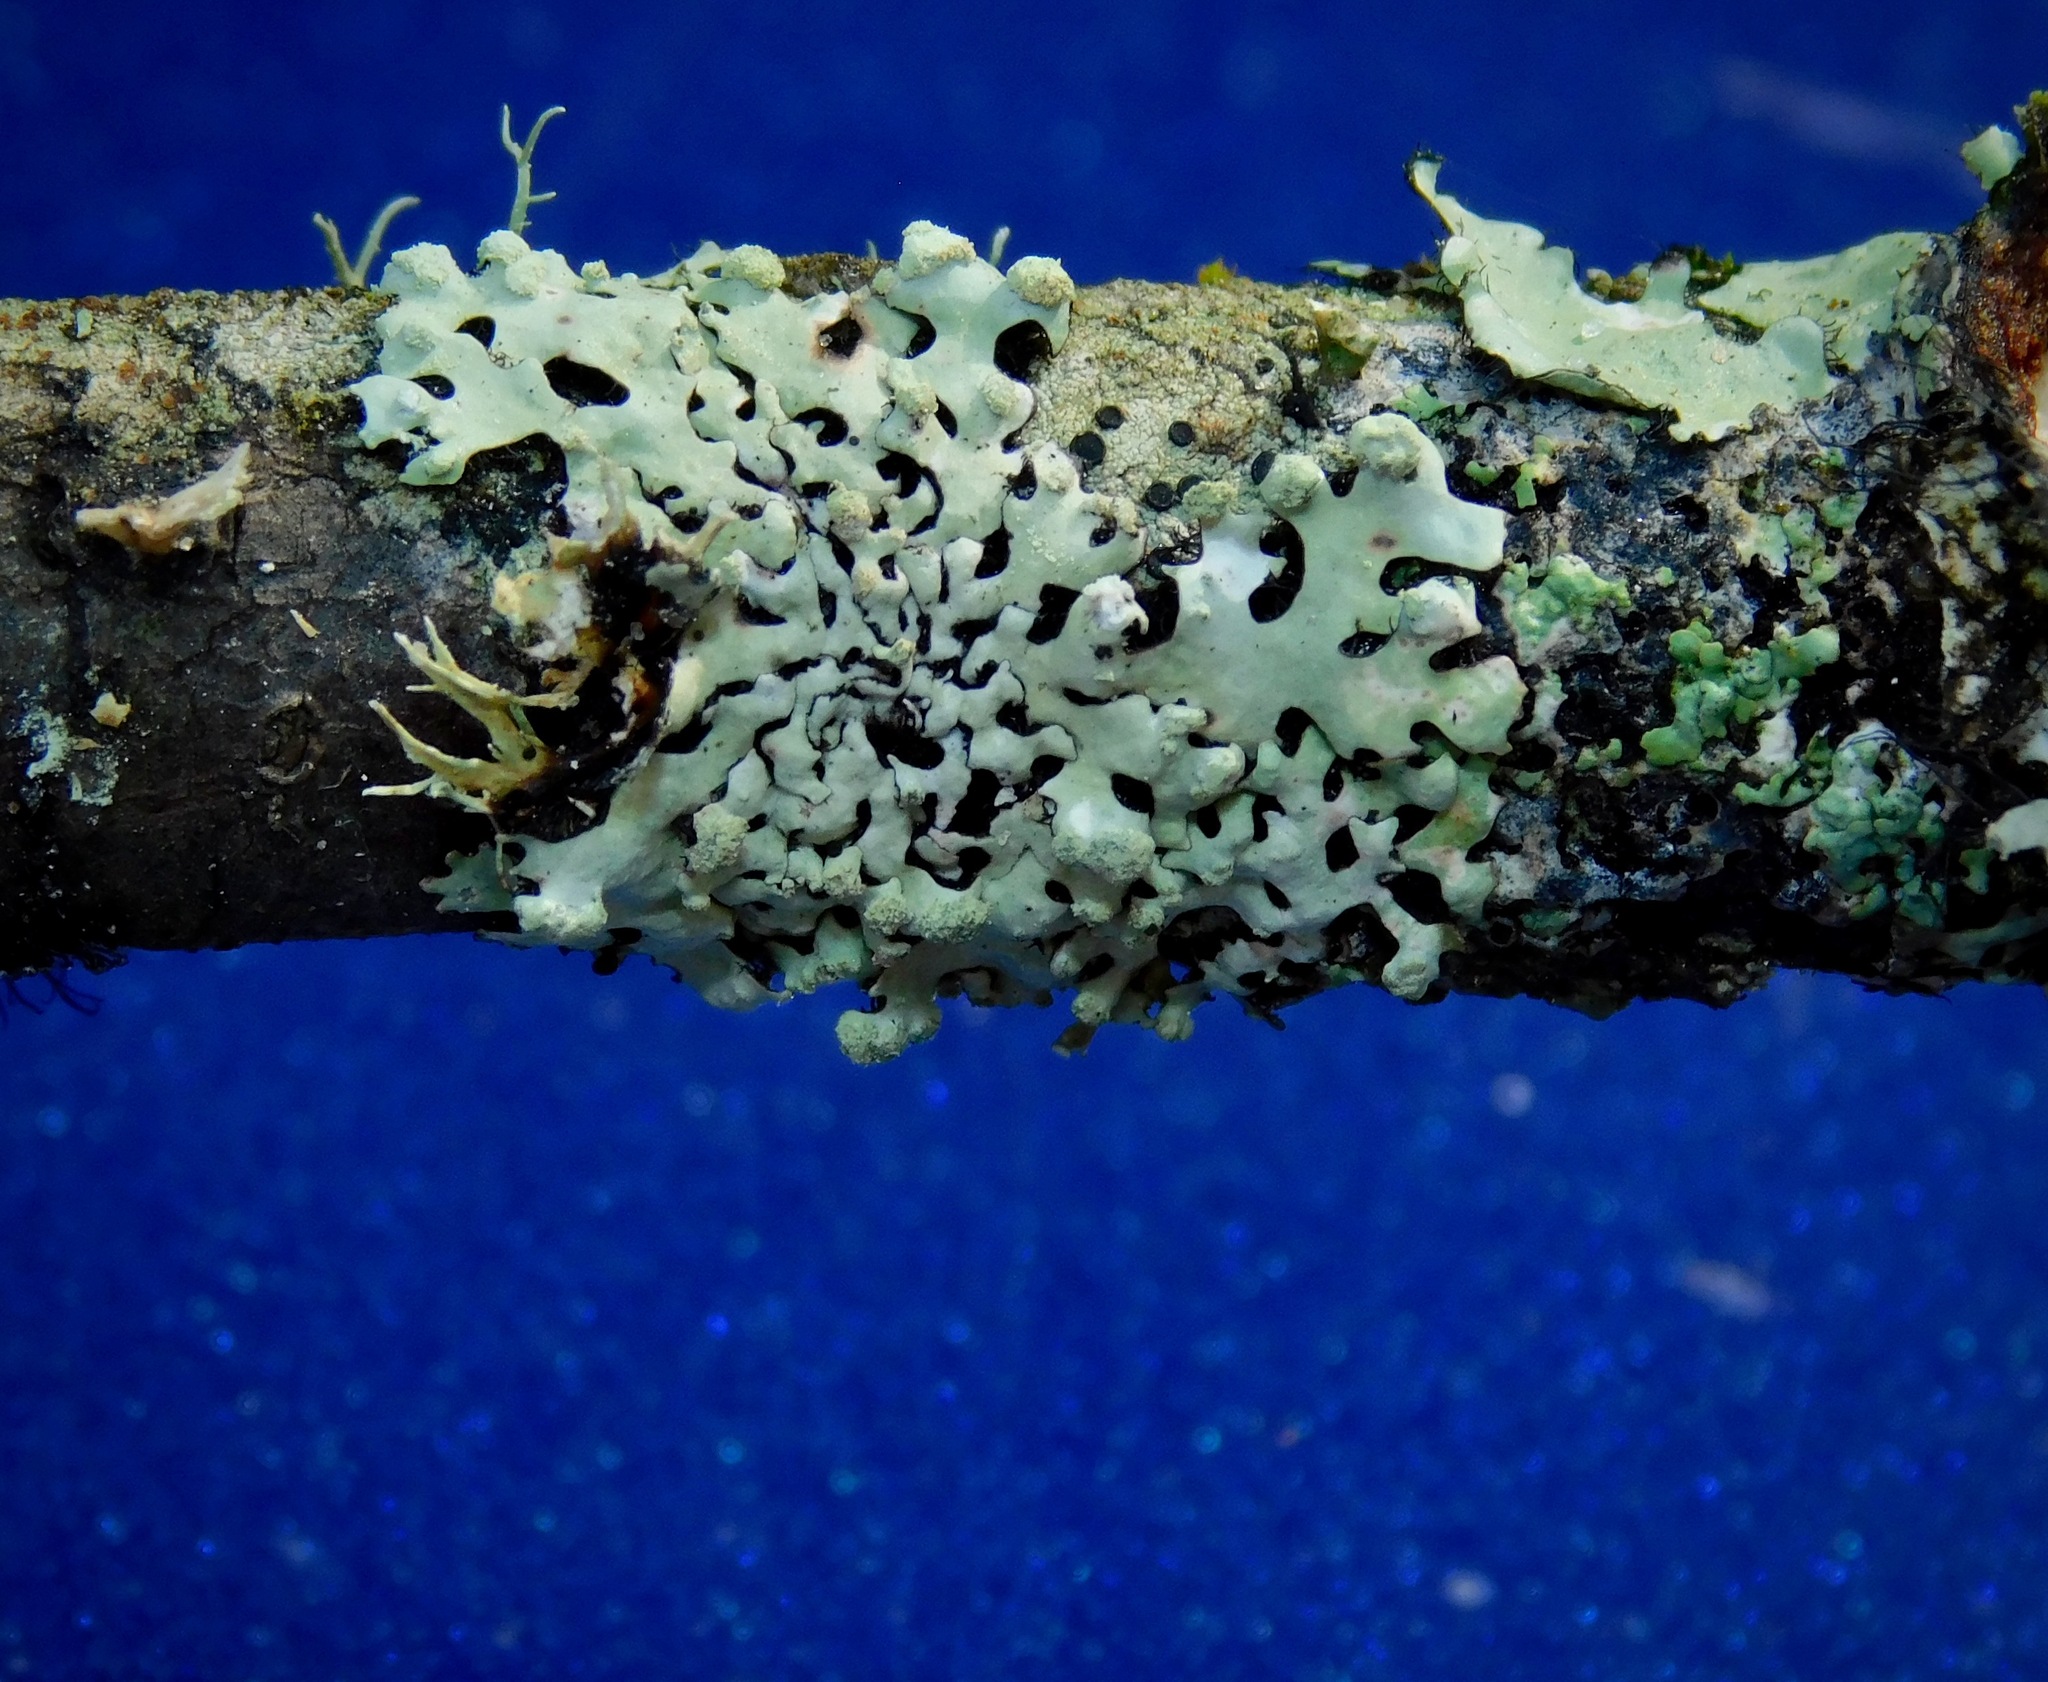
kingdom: Fungi
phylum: Ascomycota
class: Lecanoromycetes
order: Lecanorales
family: Parmeliaceae
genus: Myelochroa
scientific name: Myelochroa metarevoluta
